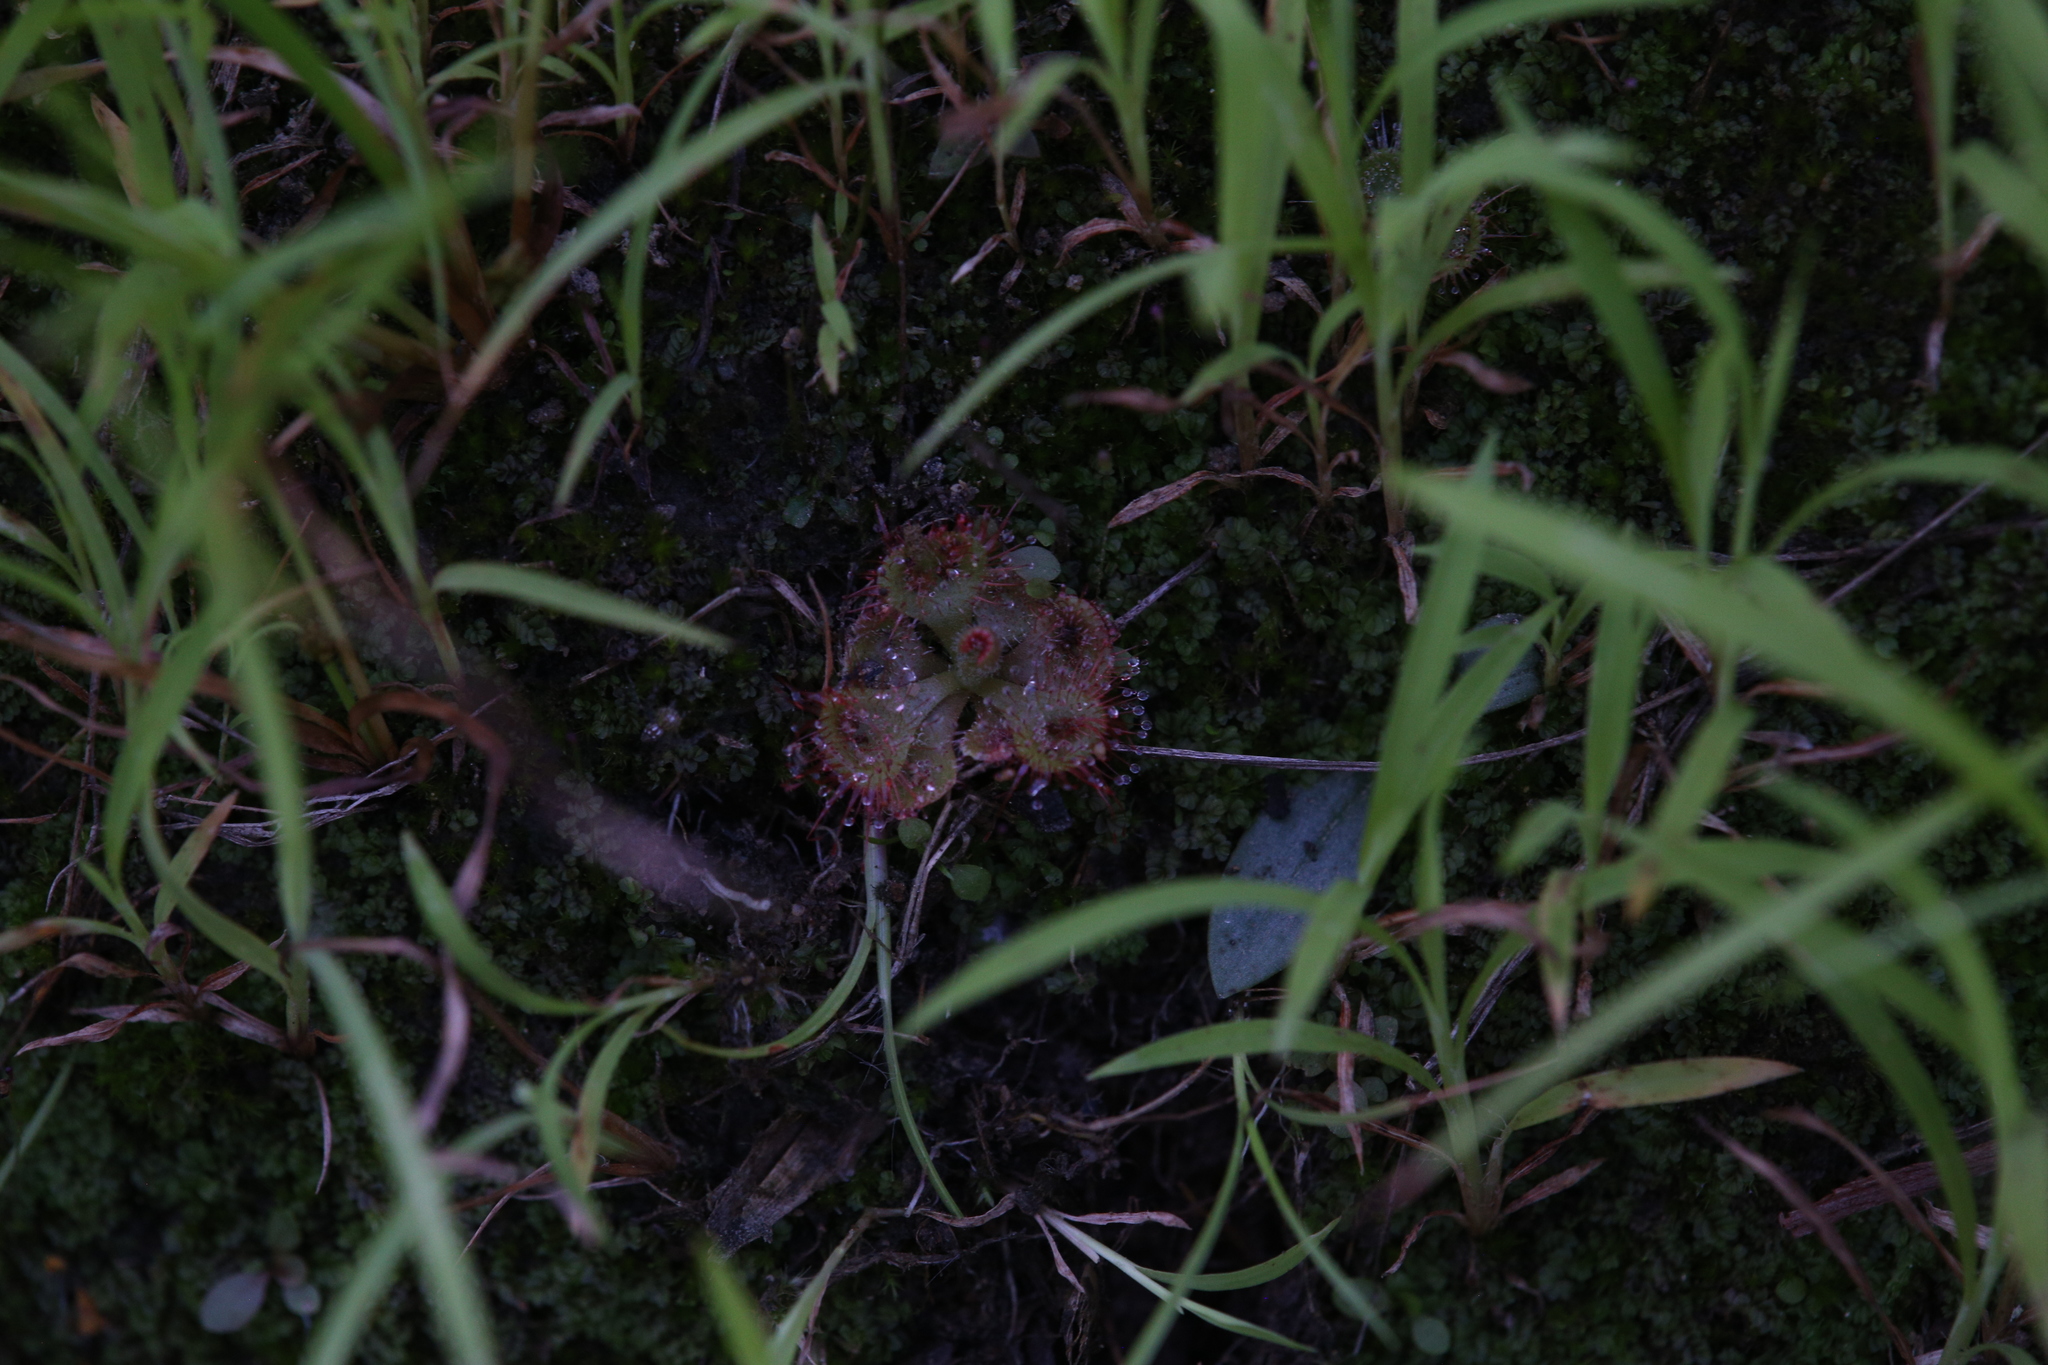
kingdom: Plantae
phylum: Tracheophyta
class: Magnoliopsida
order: Caryophyllales
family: Droseraceae
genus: Drosera
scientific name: Drosera spatulata
